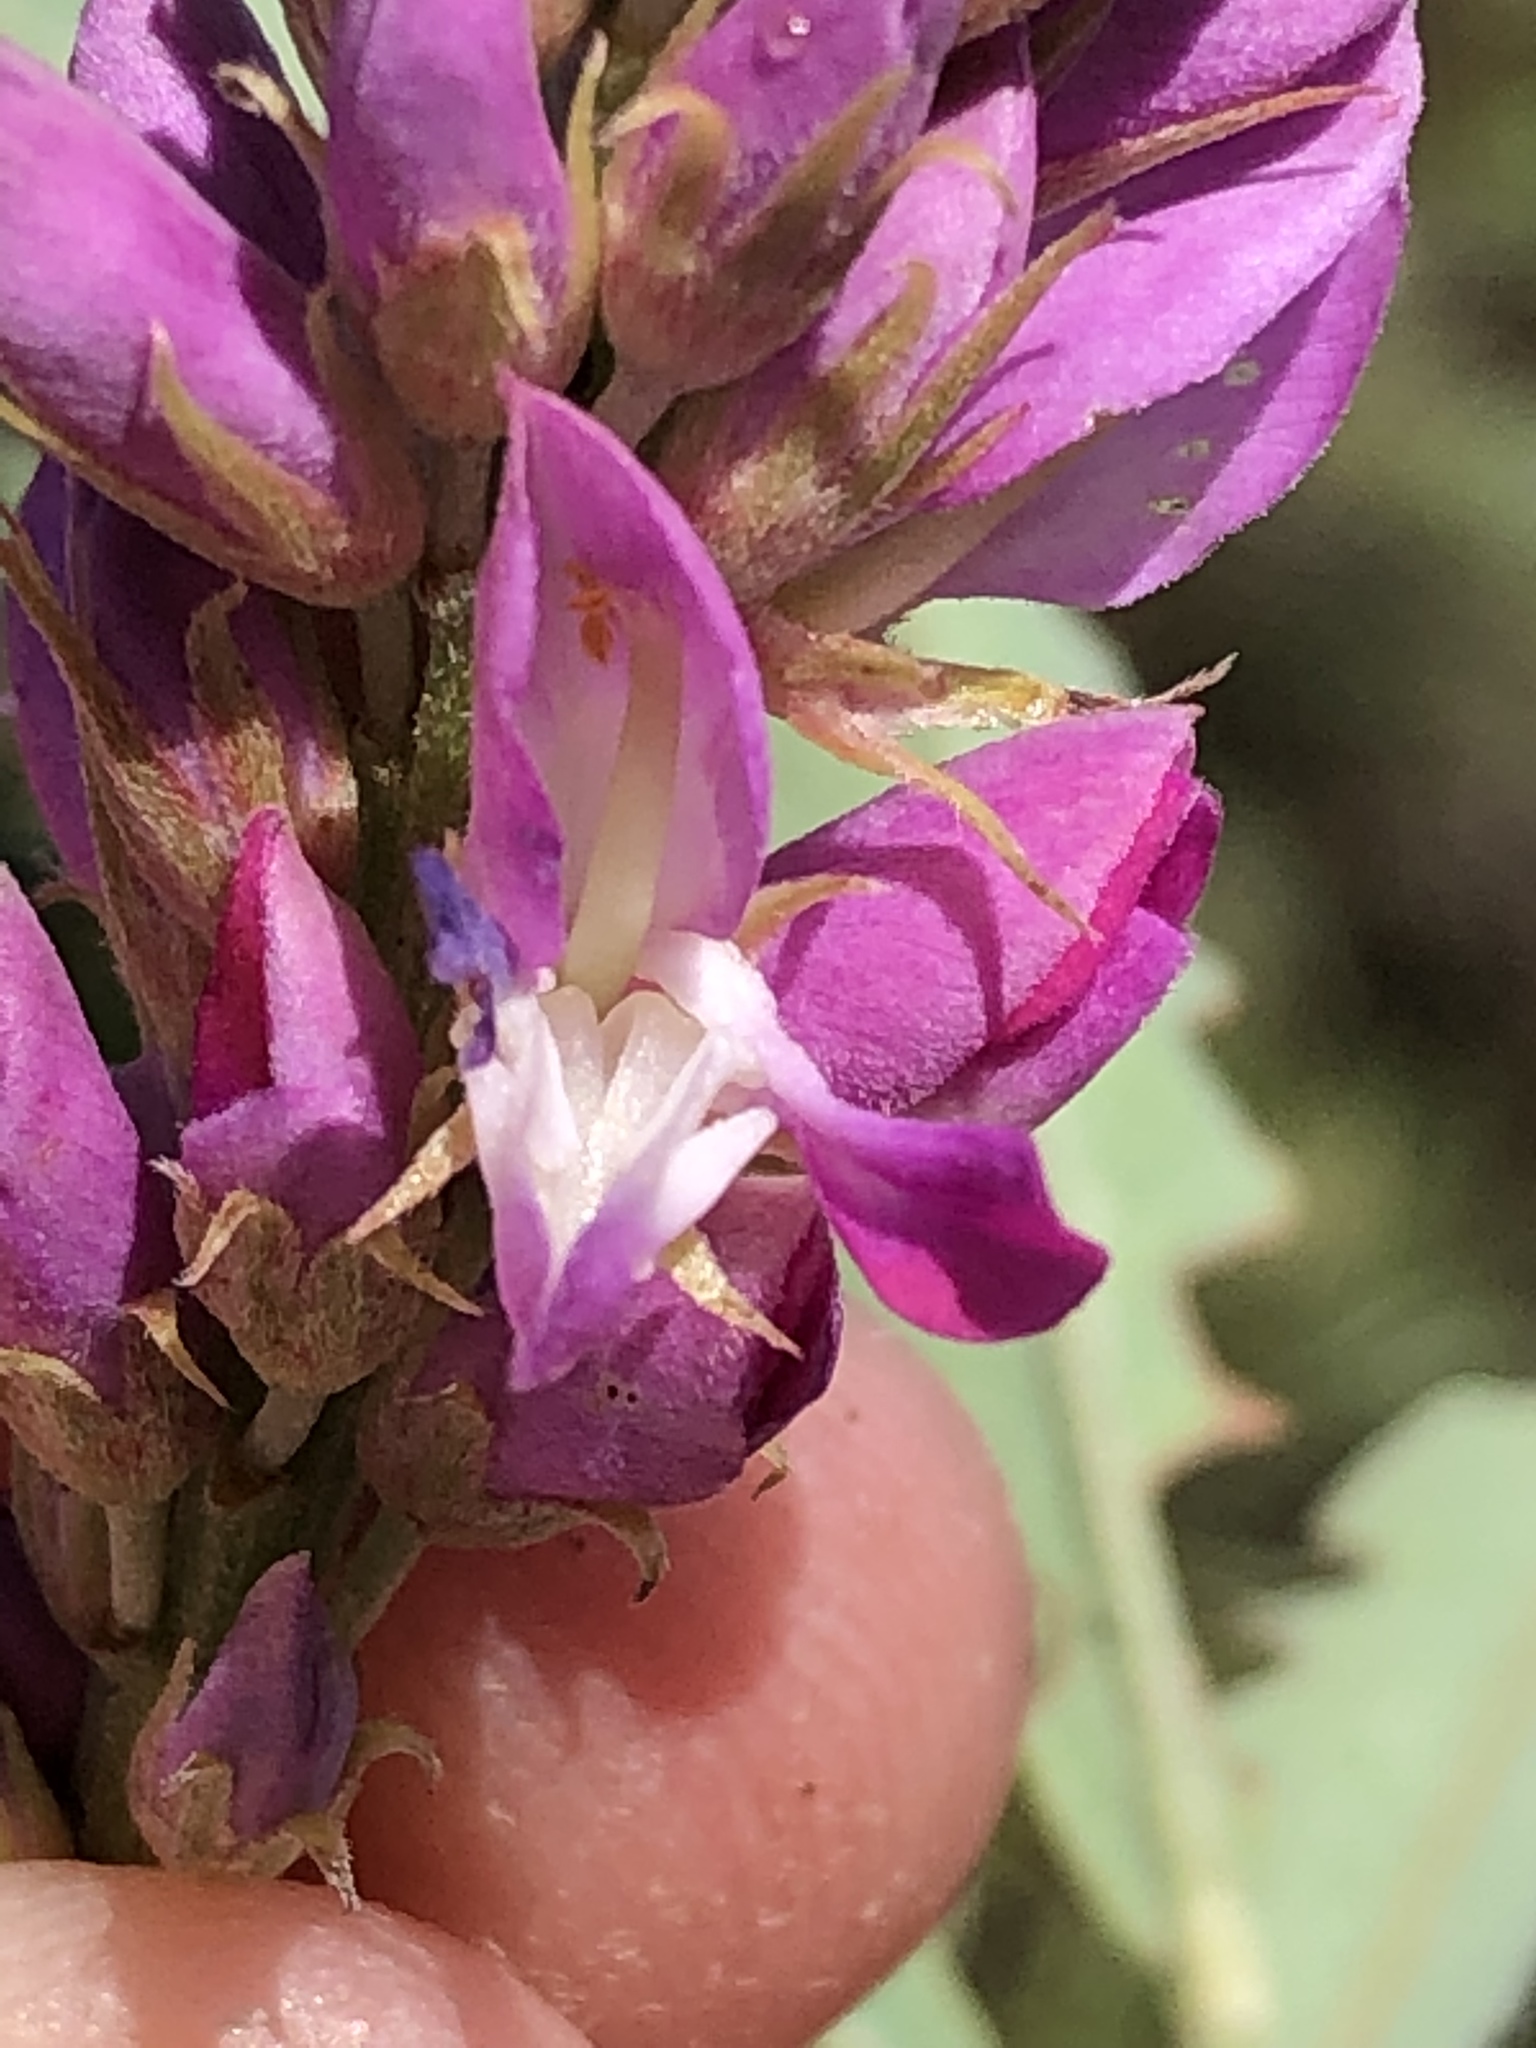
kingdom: Plantae
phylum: Tracheophyta
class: Magnoliopsida
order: Fabales
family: Fabaceae
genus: Indigofera
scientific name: Indigofera cytisoides
